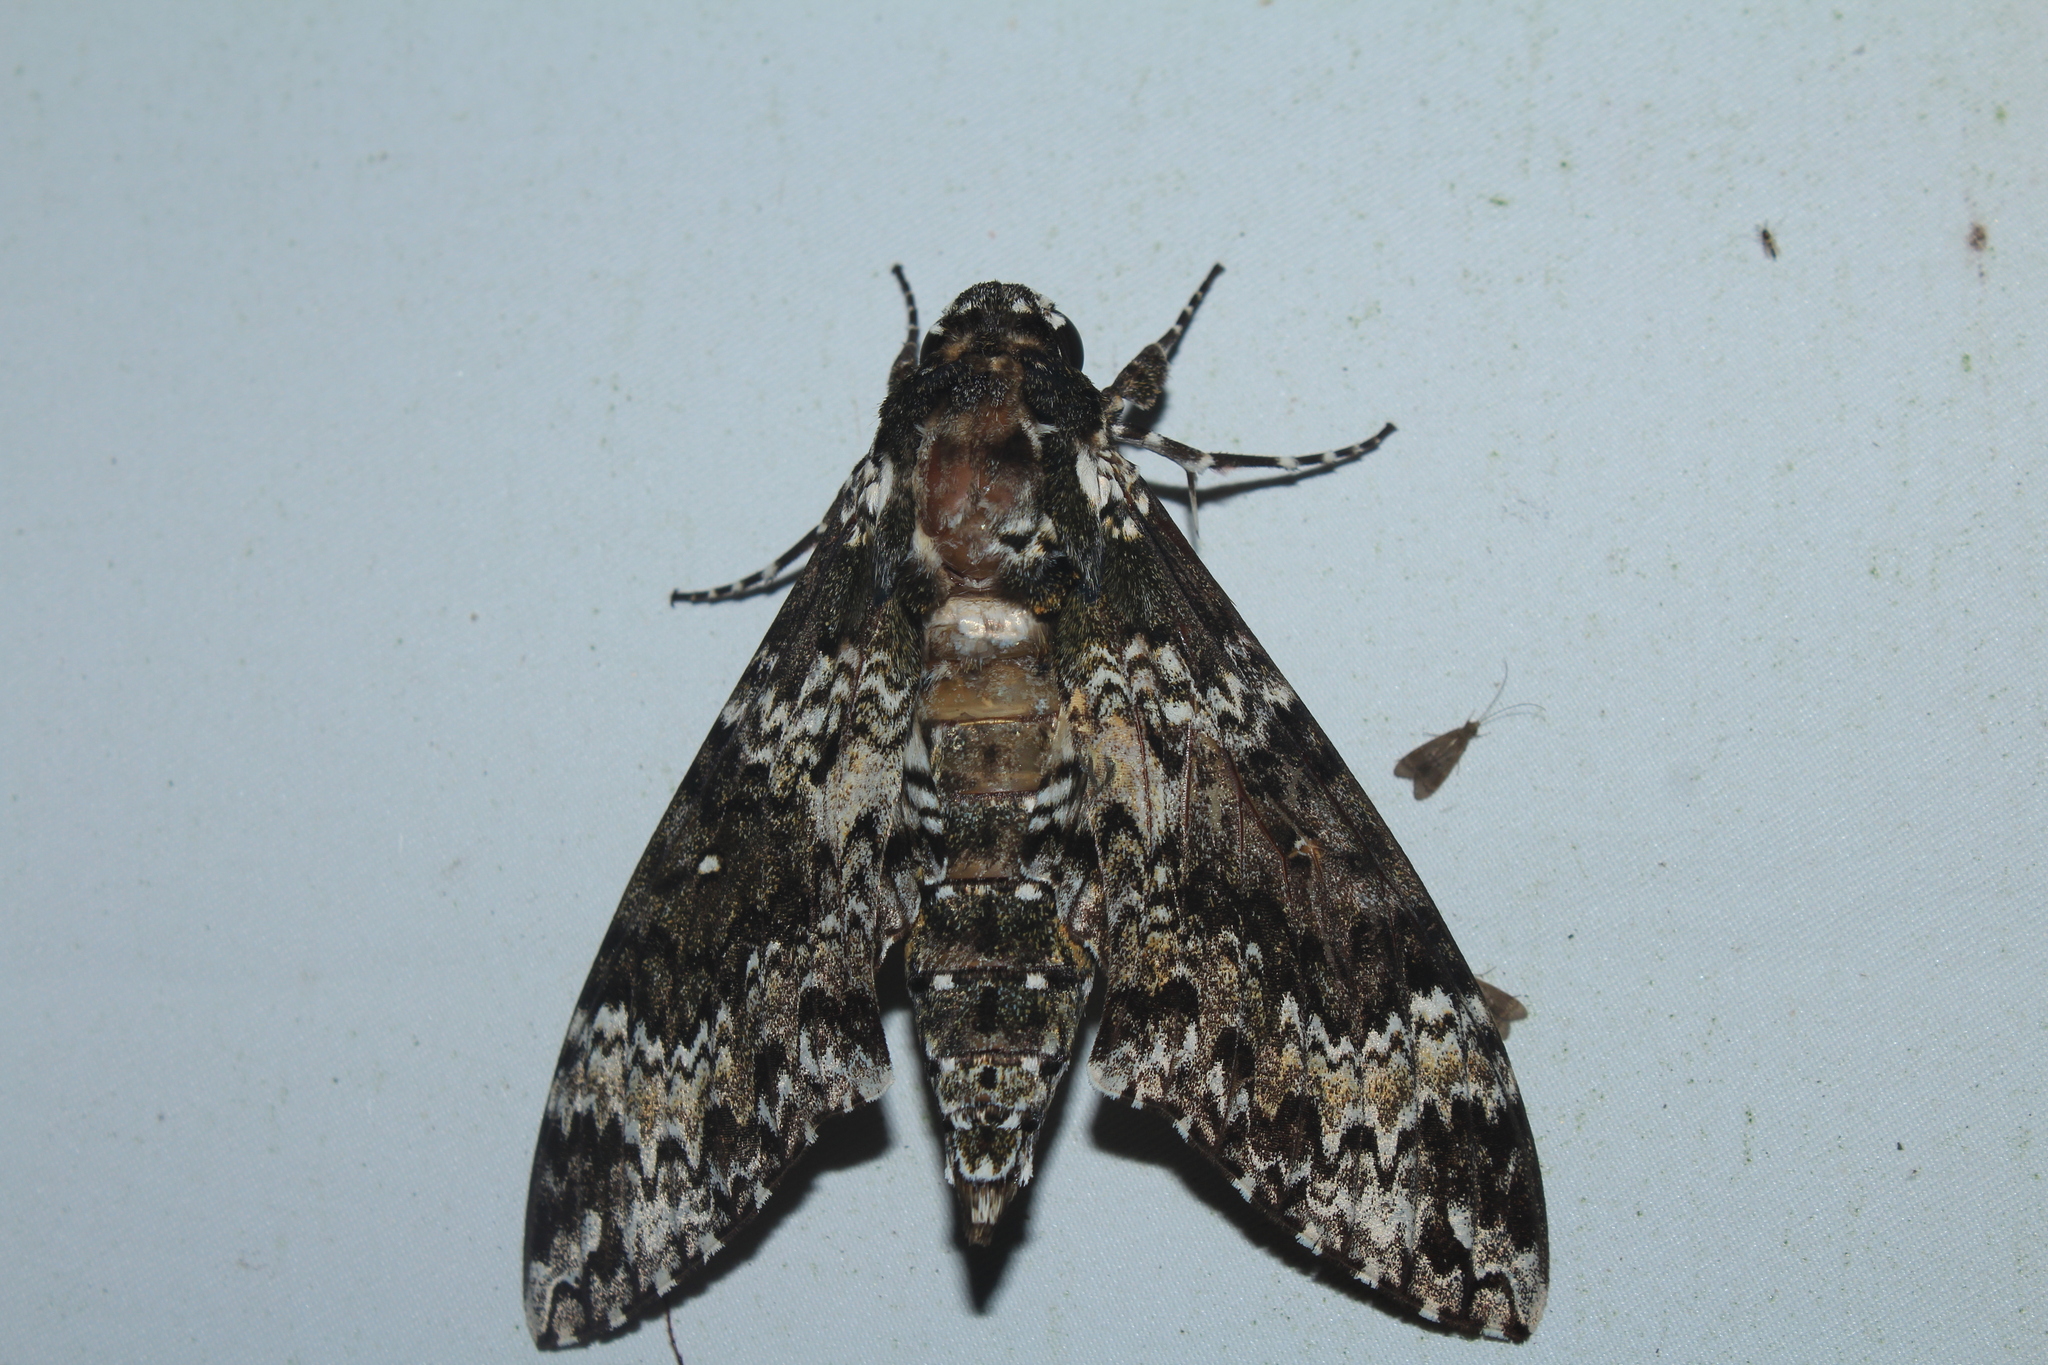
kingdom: Animalia
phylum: Arthropoda
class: Insecta
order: Lepidoptera
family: Sphingidae
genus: Manduca
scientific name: Manduca rustica
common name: Rustic sphinx
